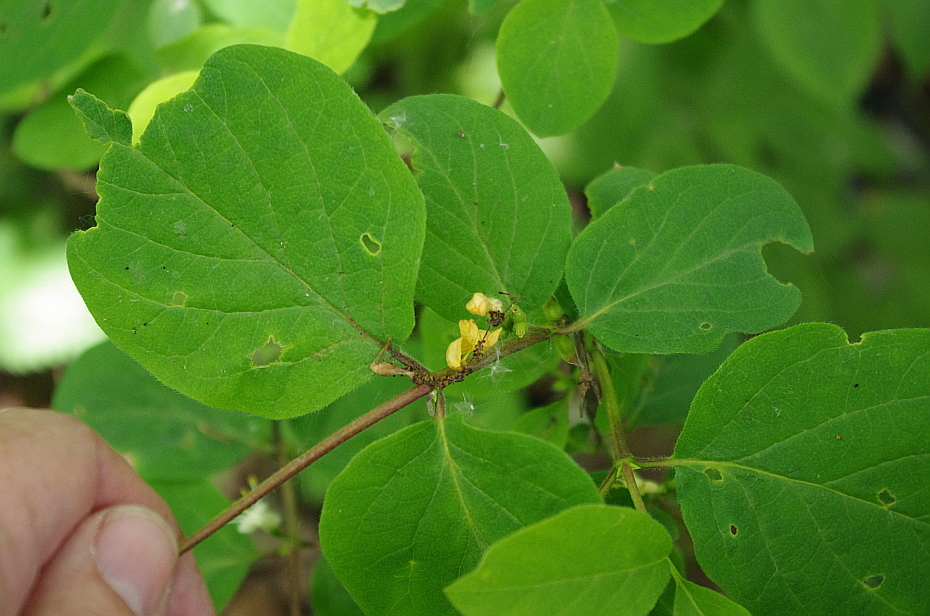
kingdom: Plantae
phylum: Tracheophyta
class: Magnoliopsida
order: Dipsacales
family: Caprifoliaceae
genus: Lonicera
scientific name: Lonicera xylosteum
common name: Fly honeysuckle
